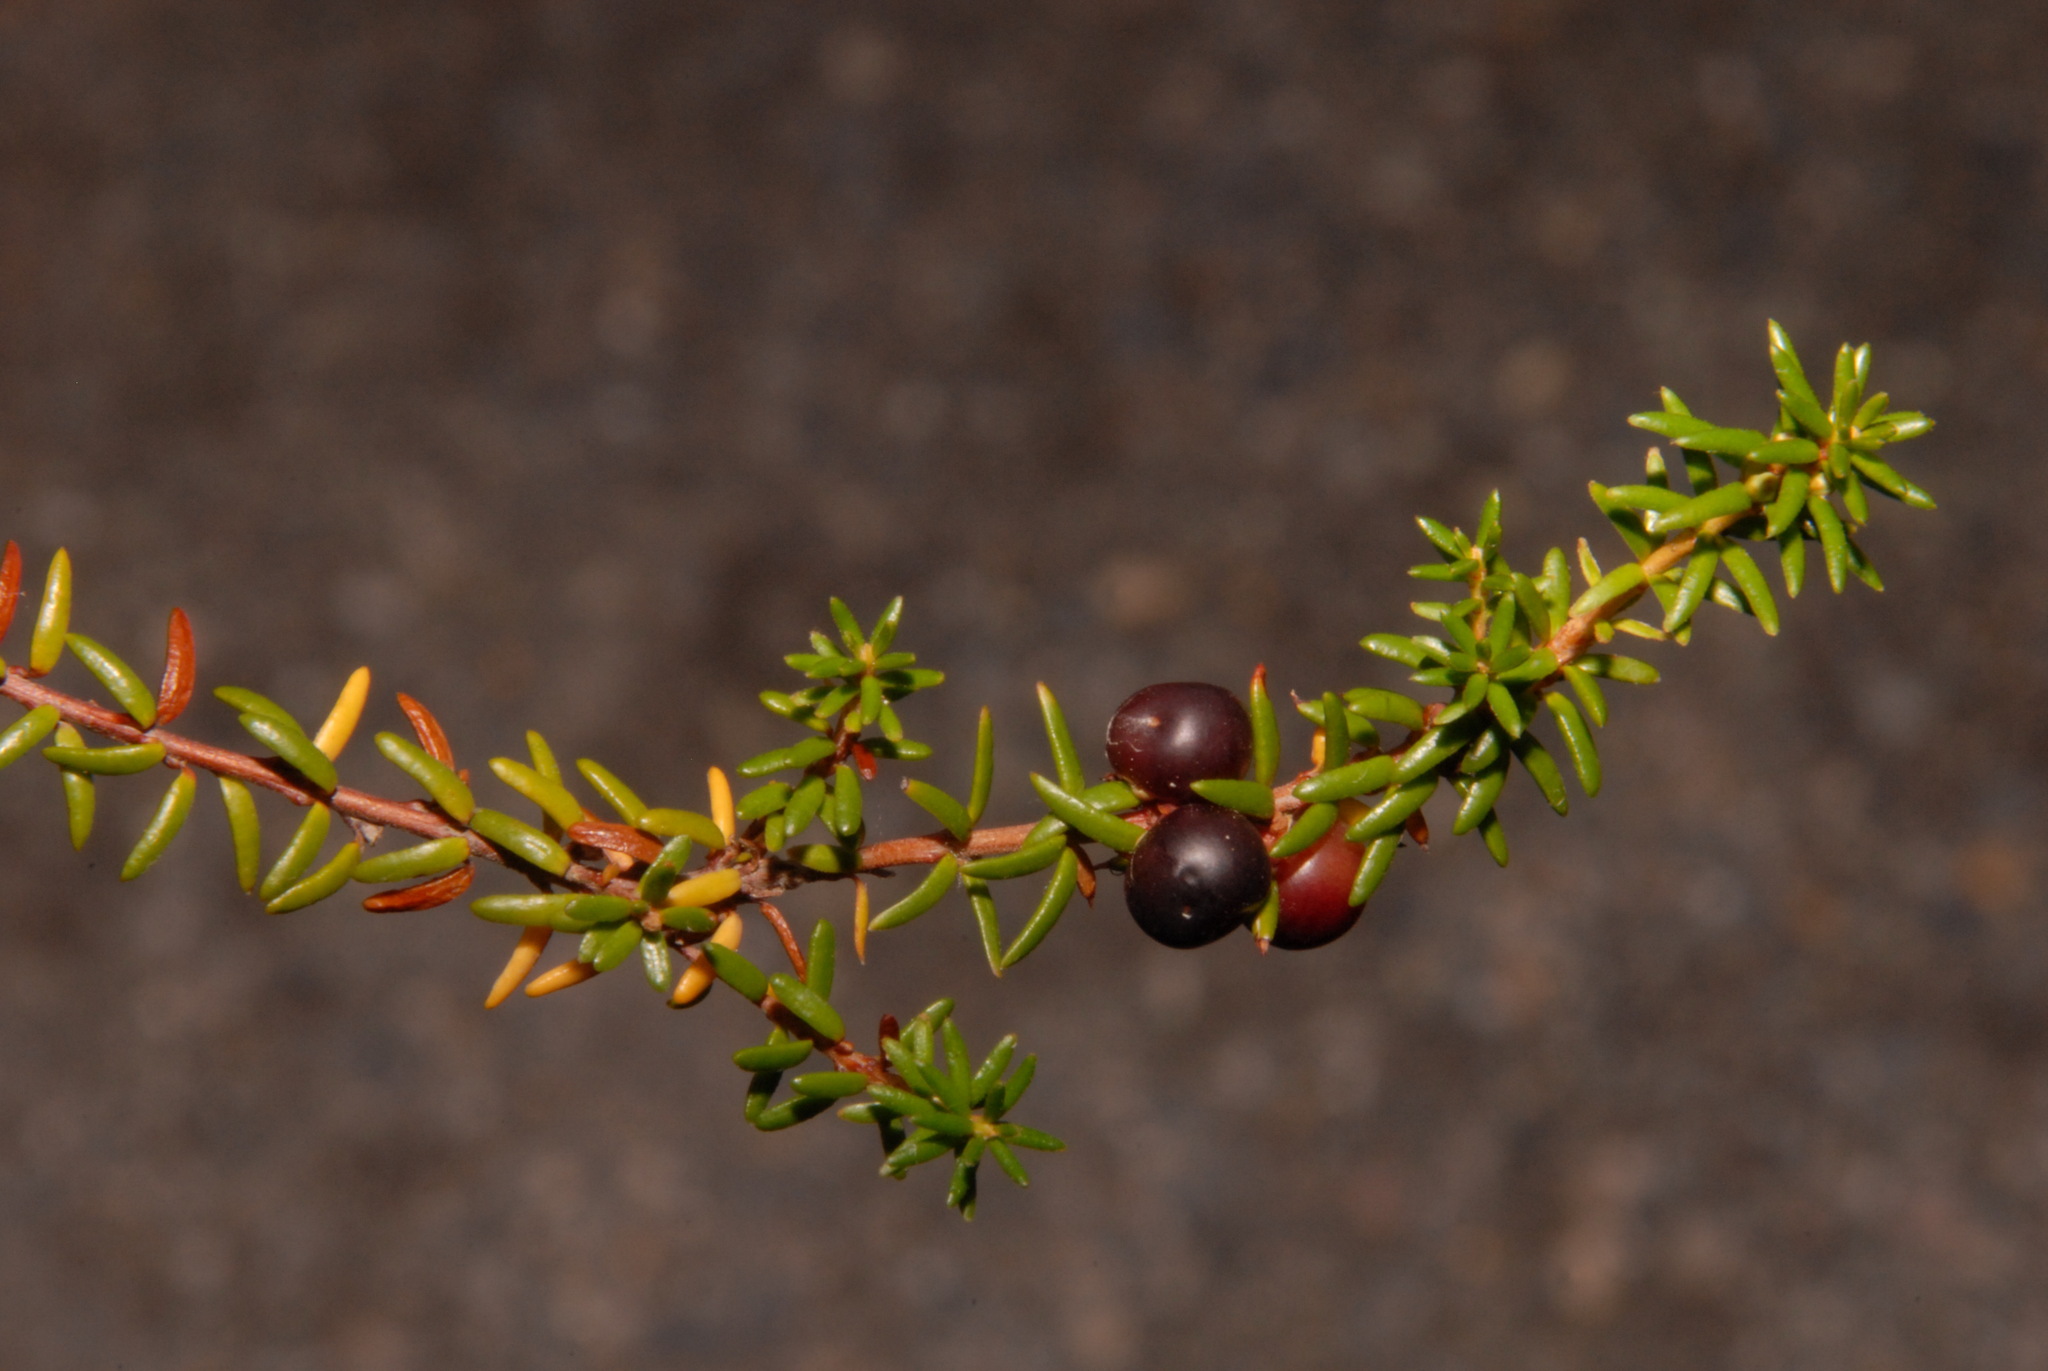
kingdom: Plantae
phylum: Tracheophyta
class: Magnoliopsida
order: Ericales
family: Ericaceae
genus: Empetrum
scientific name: Empetrum nigrum
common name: Black crowberry
